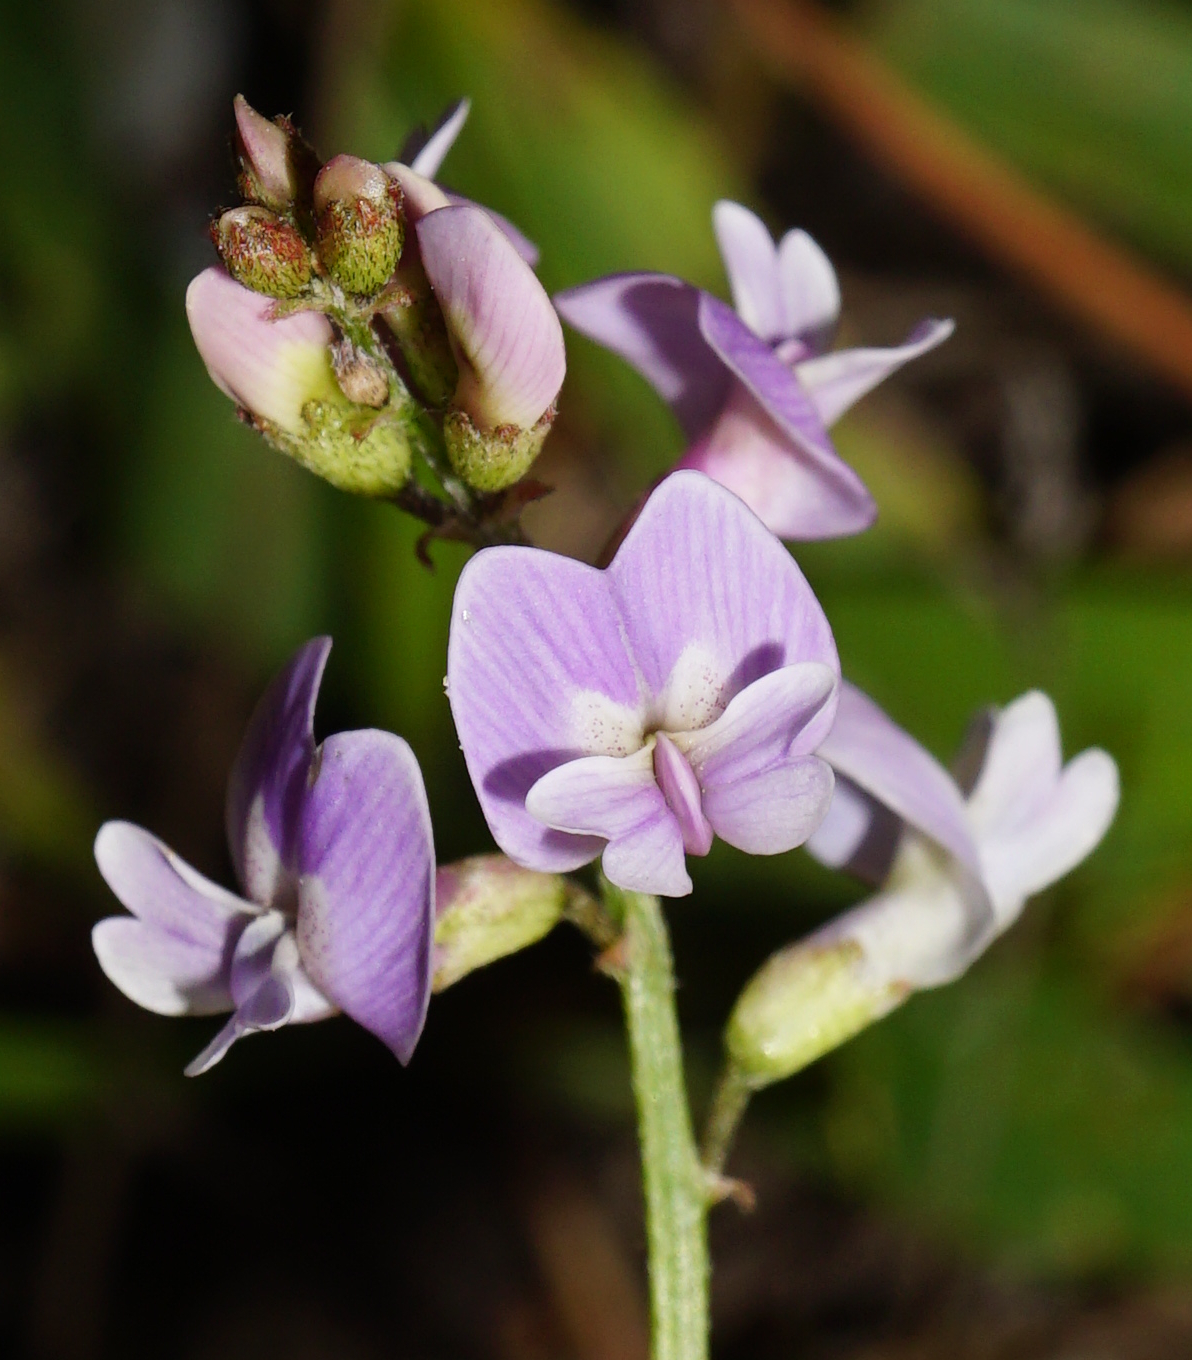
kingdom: Plantae
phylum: Tracheophyta
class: Magnoliopsida
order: Fabales
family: Fabaceae
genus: Astragalus
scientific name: Astragalus austriacus
